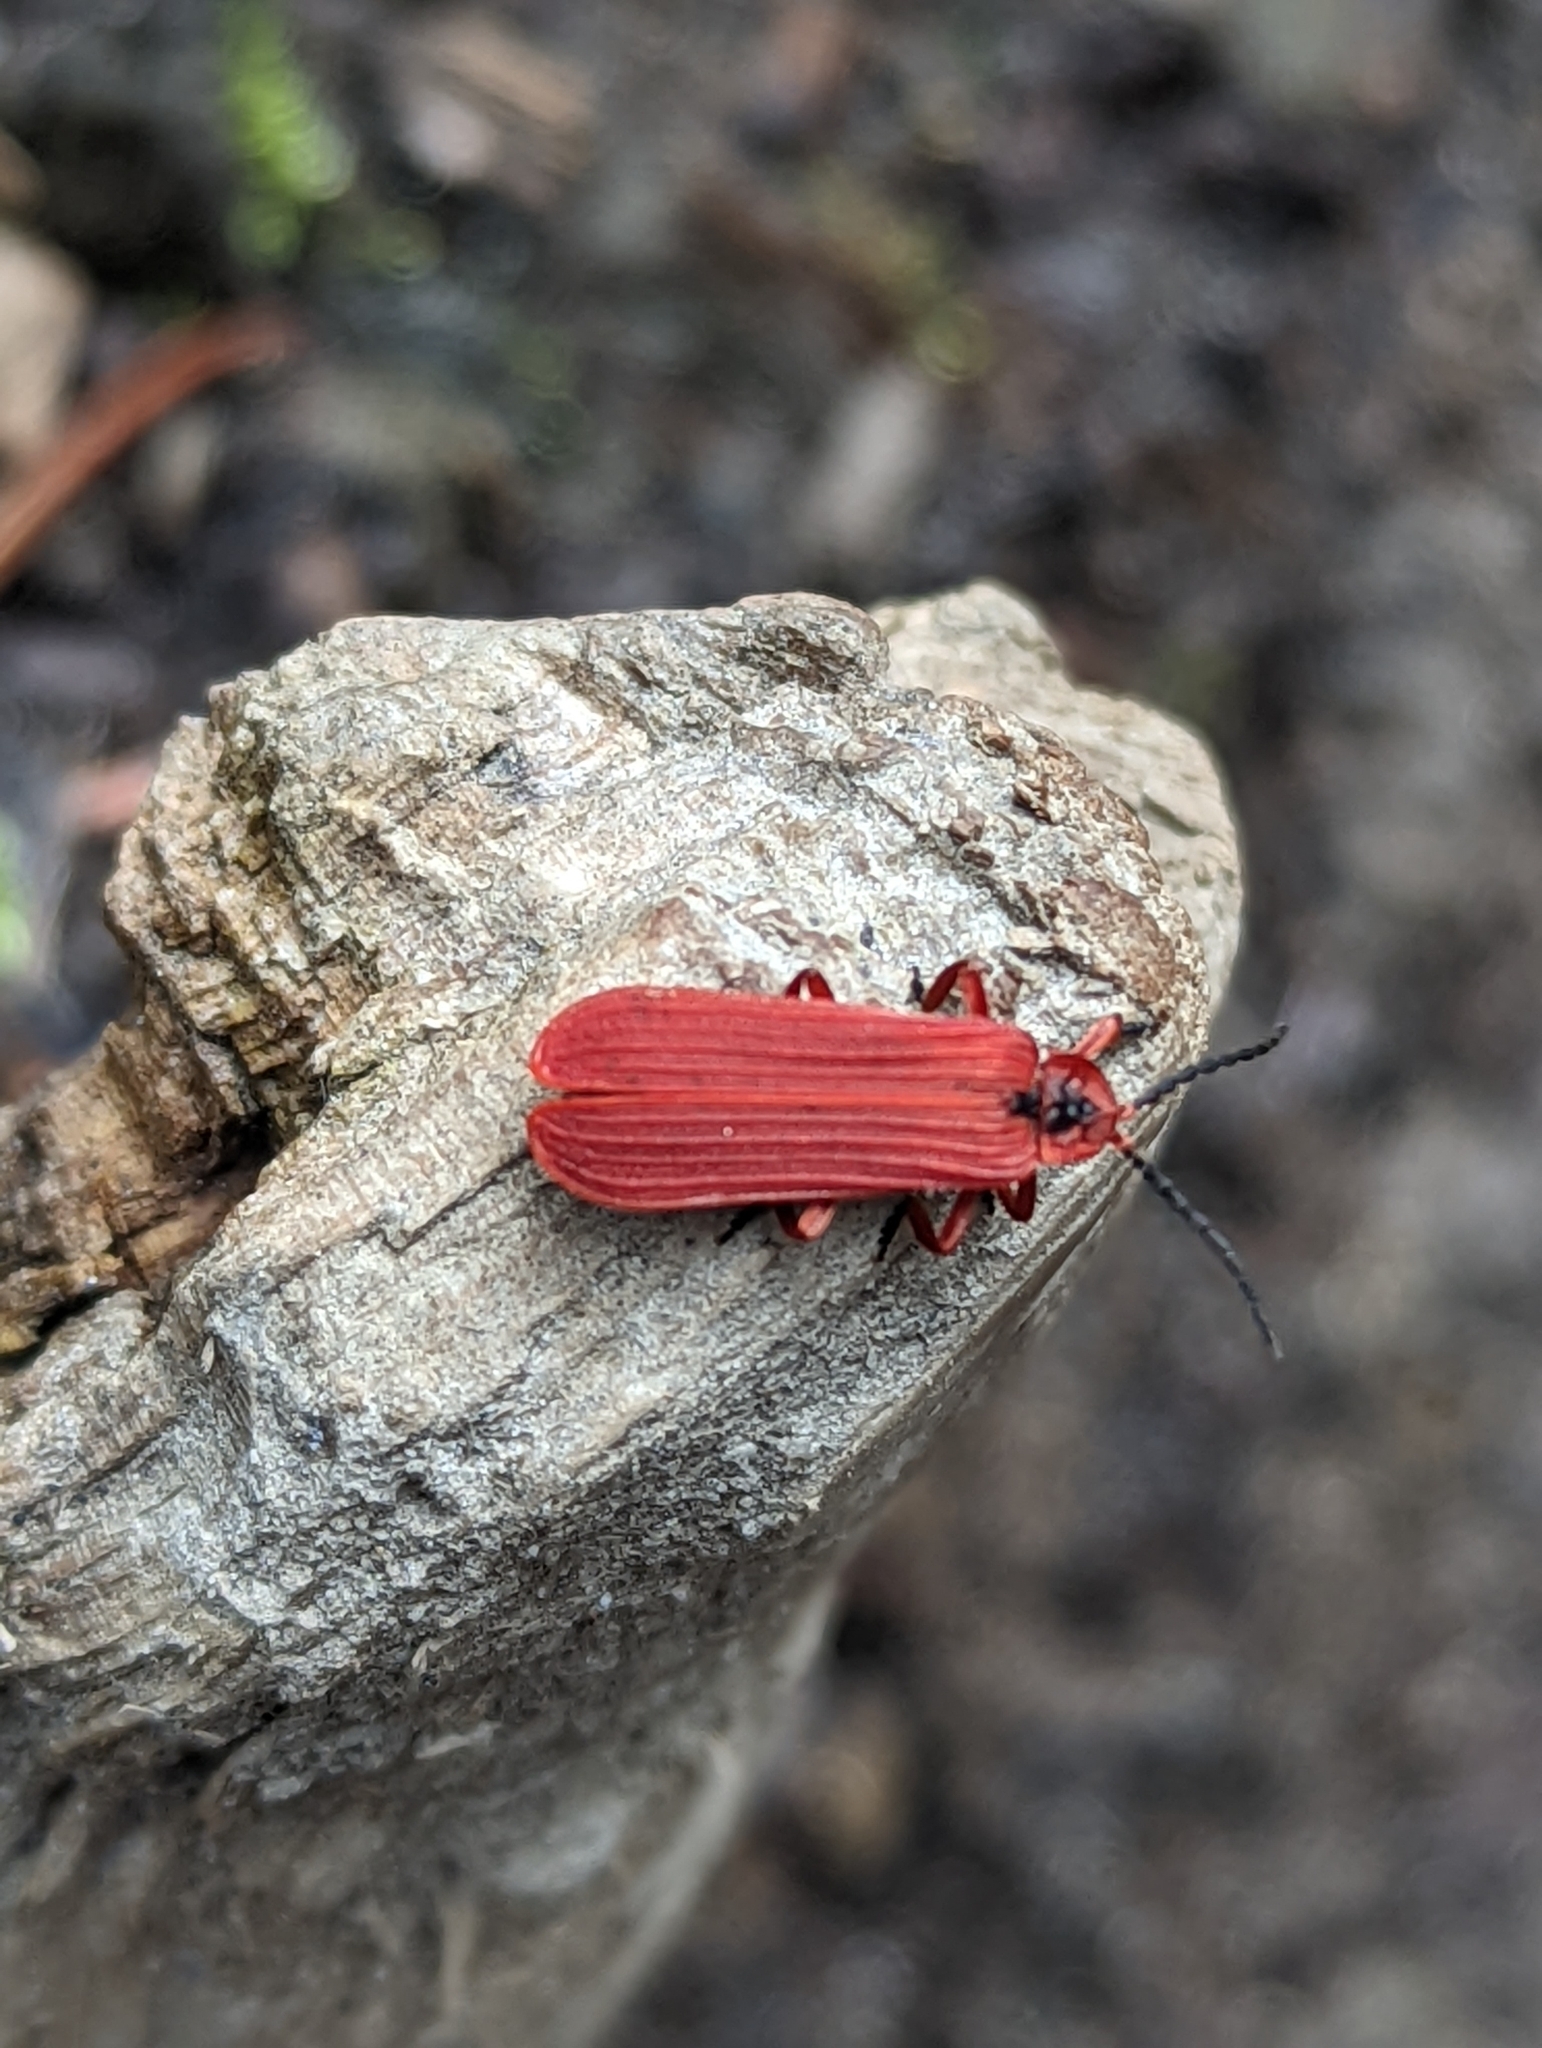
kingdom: Animalia
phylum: Arthropoda
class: Insecta
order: Coleoptera
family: Lycidae
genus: Dictyoptera
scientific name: Dictyoptera simplicipes
